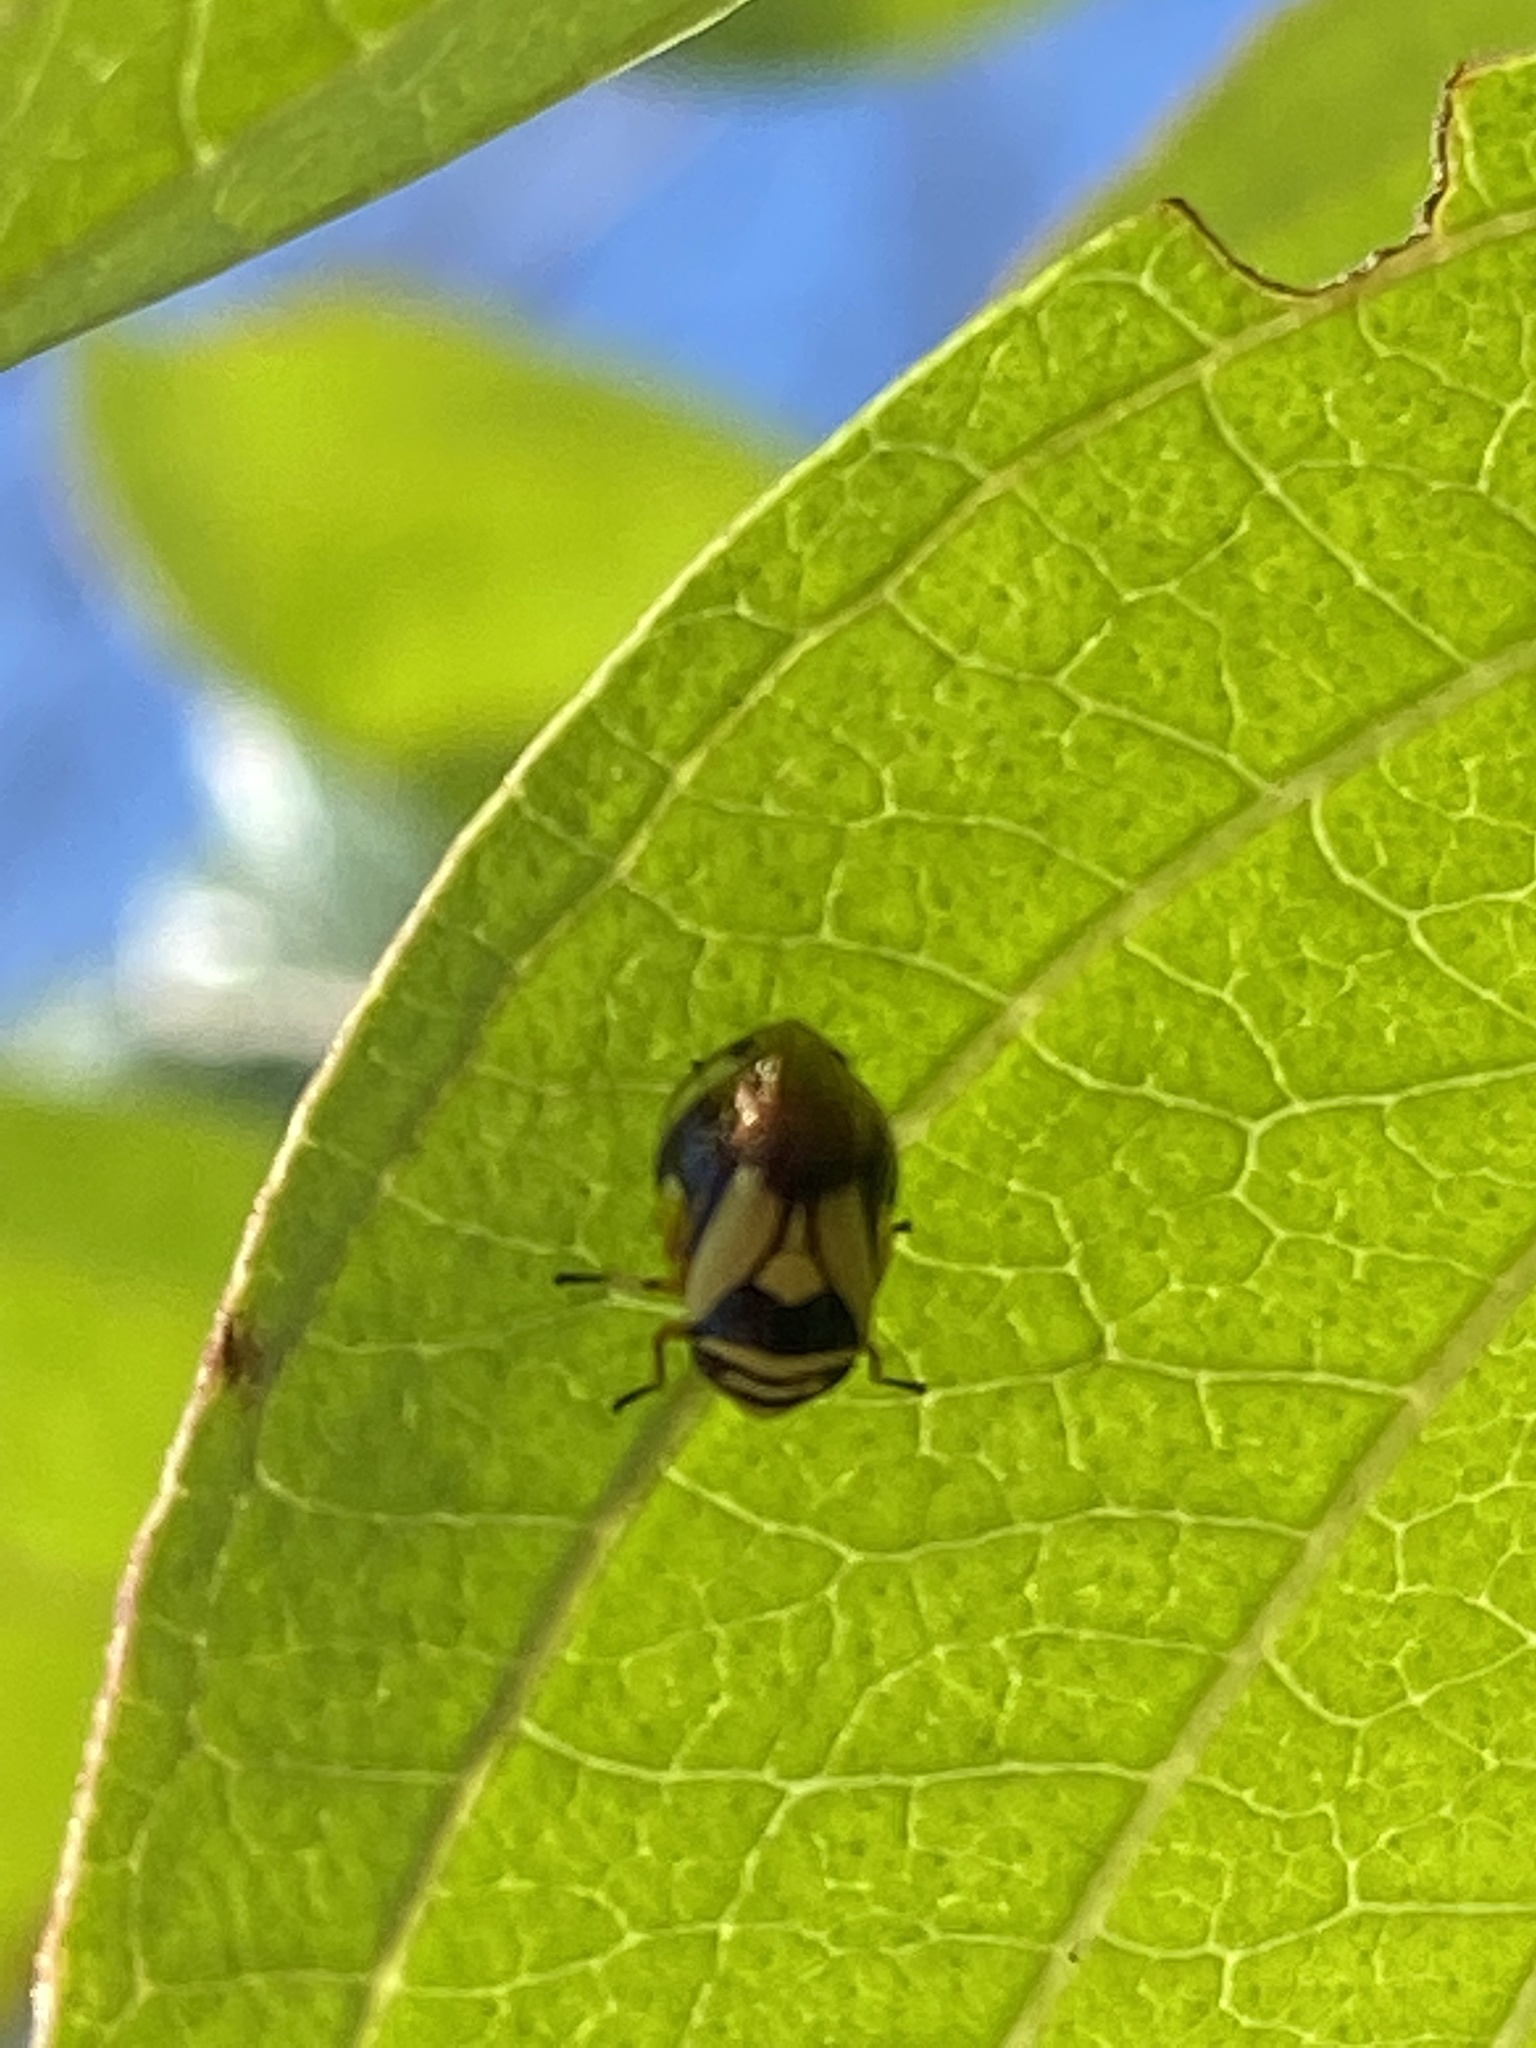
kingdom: Animalia
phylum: Arthropoda
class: Insecta
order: Hemiptera
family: Clastopteridae
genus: Clastoptera
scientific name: Clastoptera proteus
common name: Dogwood spittlebug
